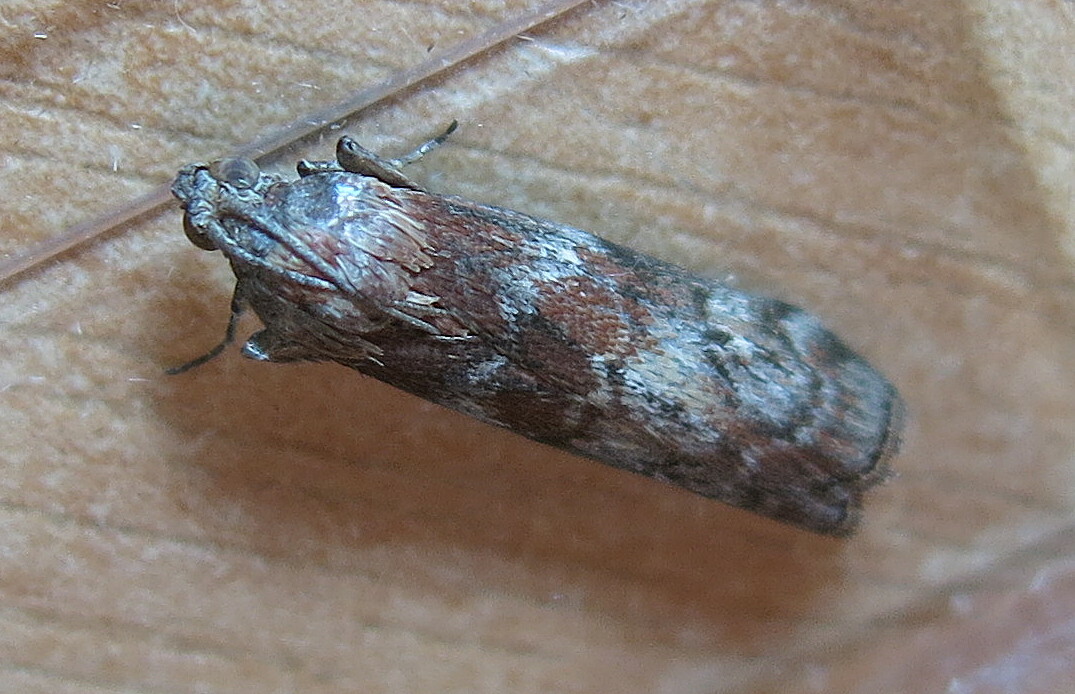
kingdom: Animalia
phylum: Arthropoda
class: Insecta
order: Lepidoptera
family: Pyralidae
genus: Phycita
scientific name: Phycita roborella
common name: Dotted oak knot-horn
